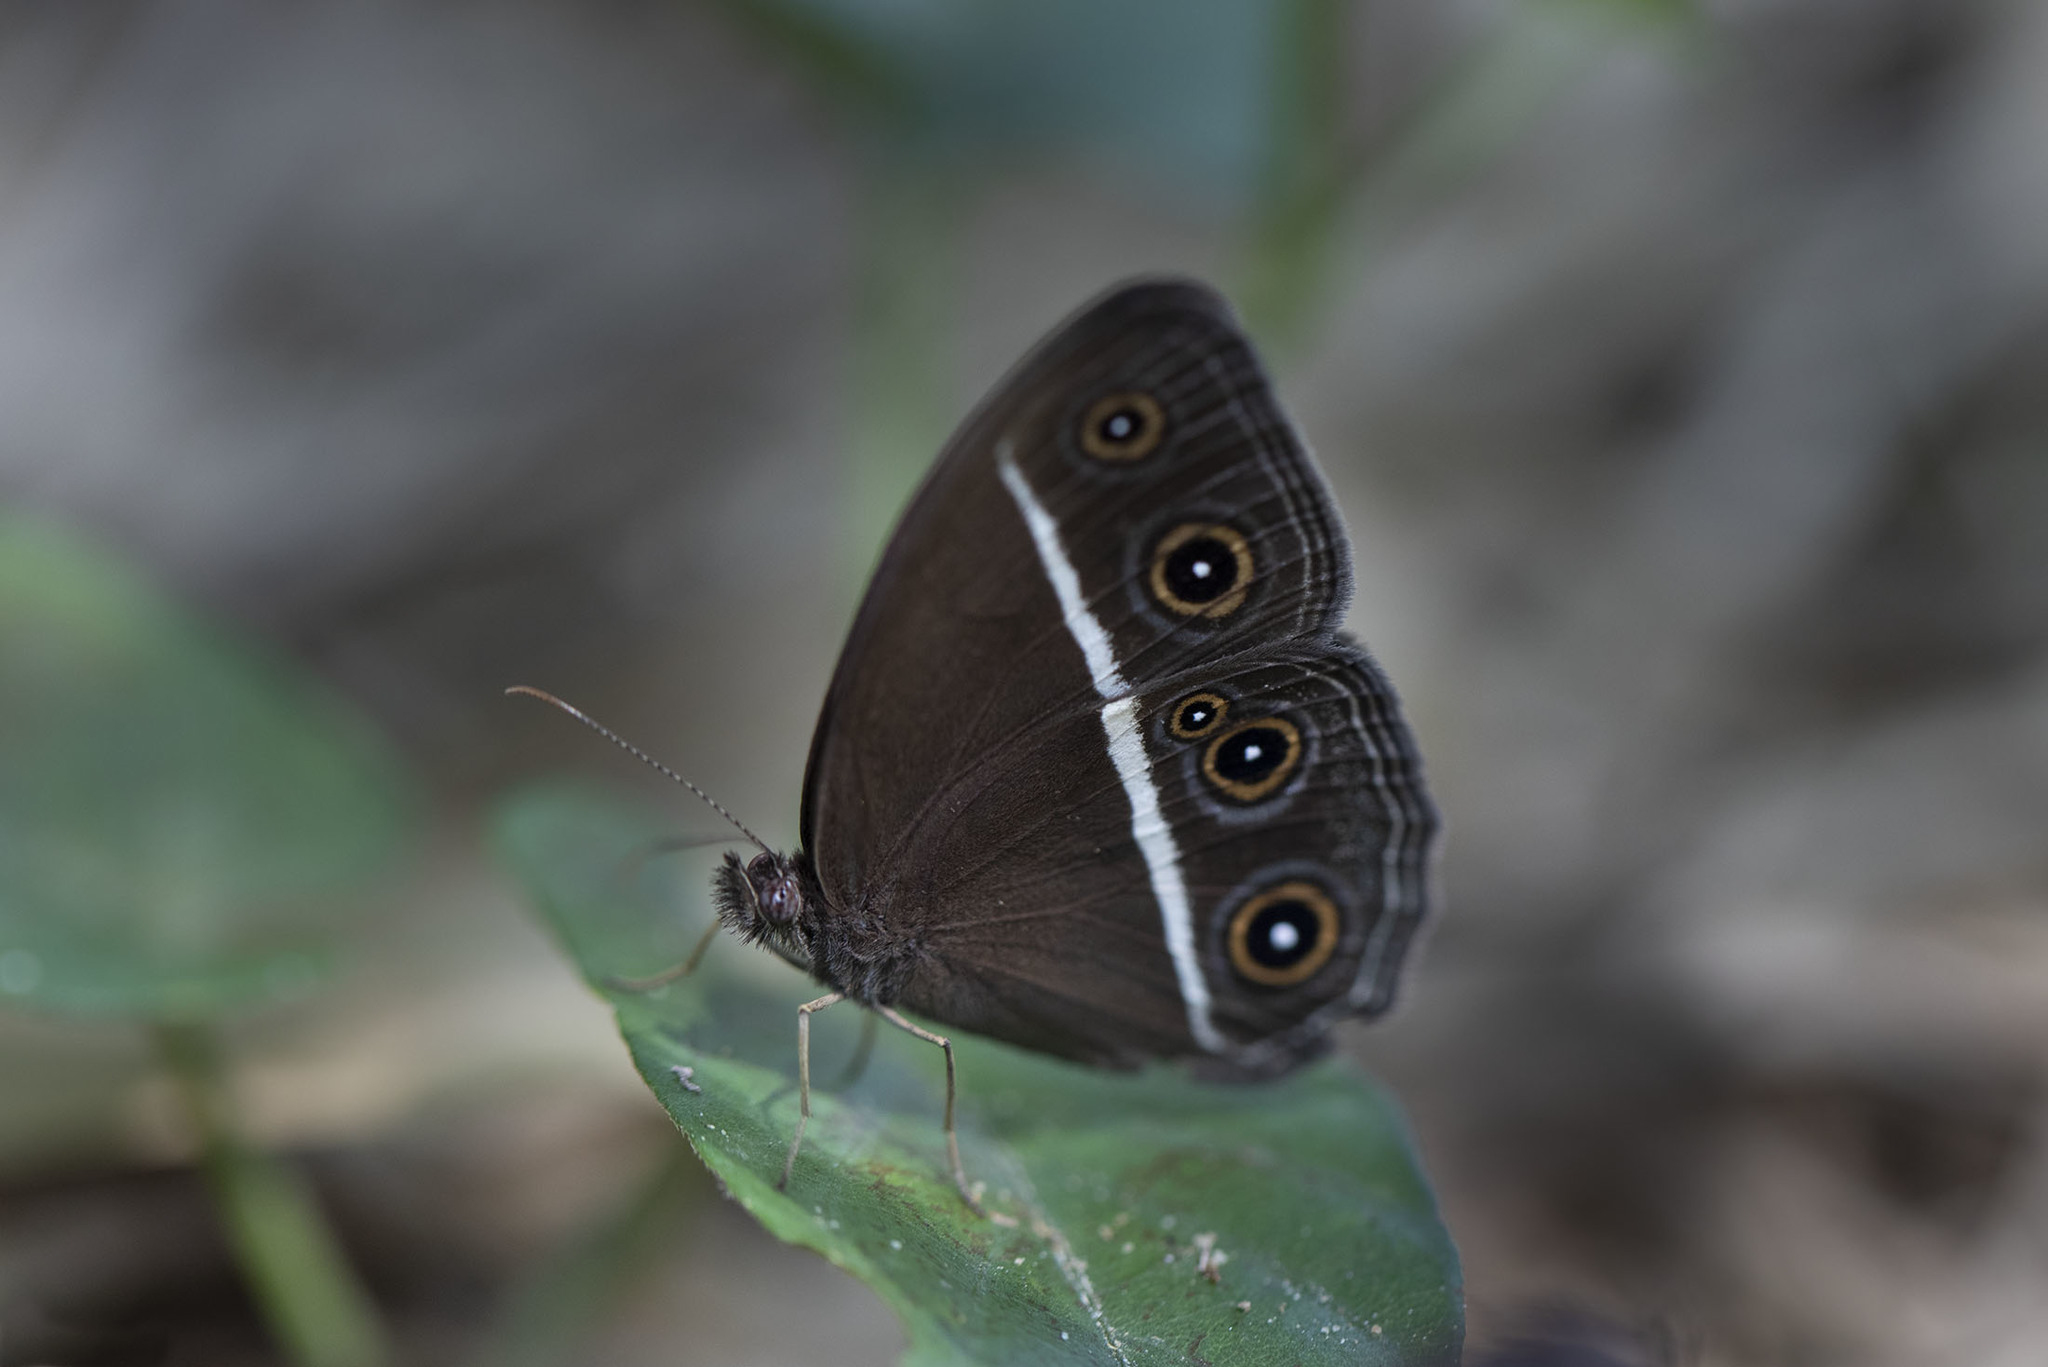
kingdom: Animalia
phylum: Arthropoda
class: Insecta
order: Lepidoptera
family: Nymphalidae
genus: Orsotriaena
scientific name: Orsotriaena medus
